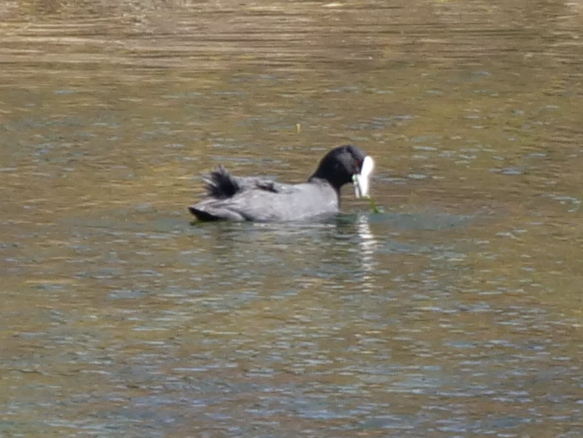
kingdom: Animalia
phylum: Chordata
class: Aves
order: Gruiformes
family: Rallidae
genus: Fulica
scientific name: Fulica atra
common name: Eurasian coot
